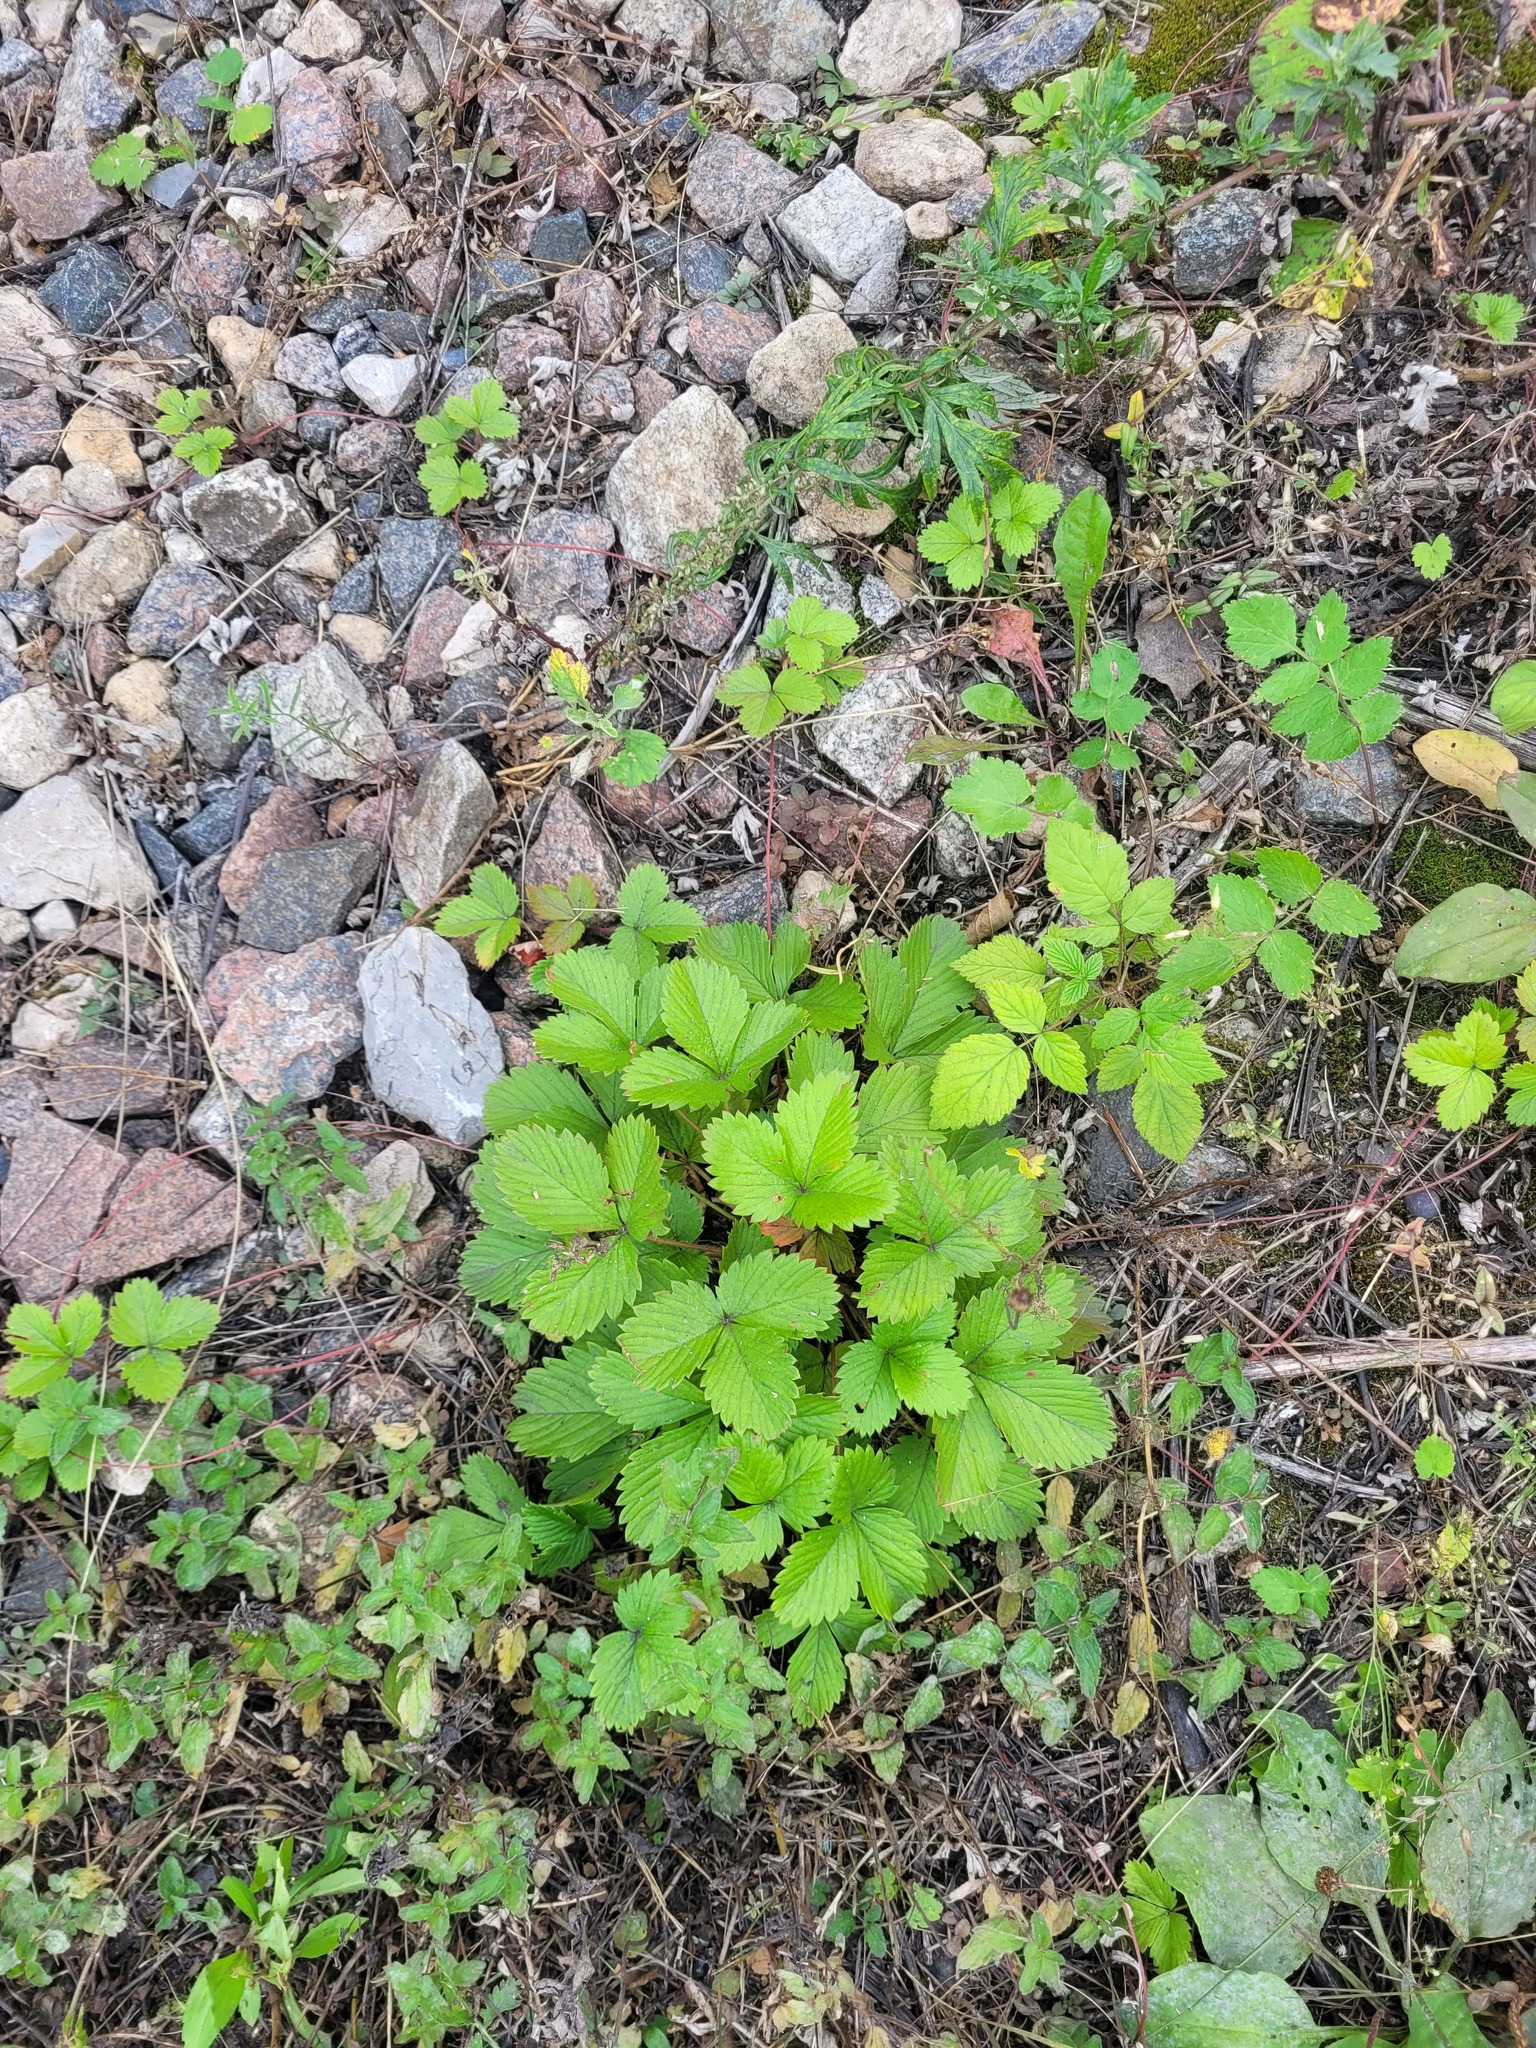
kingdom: Plantae
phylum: Tracheophyta
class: Magnoliopsida
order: Rosales
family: Rosaceae
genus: Fragaria
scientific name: Fragaria vesca
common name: Wild strawberry
